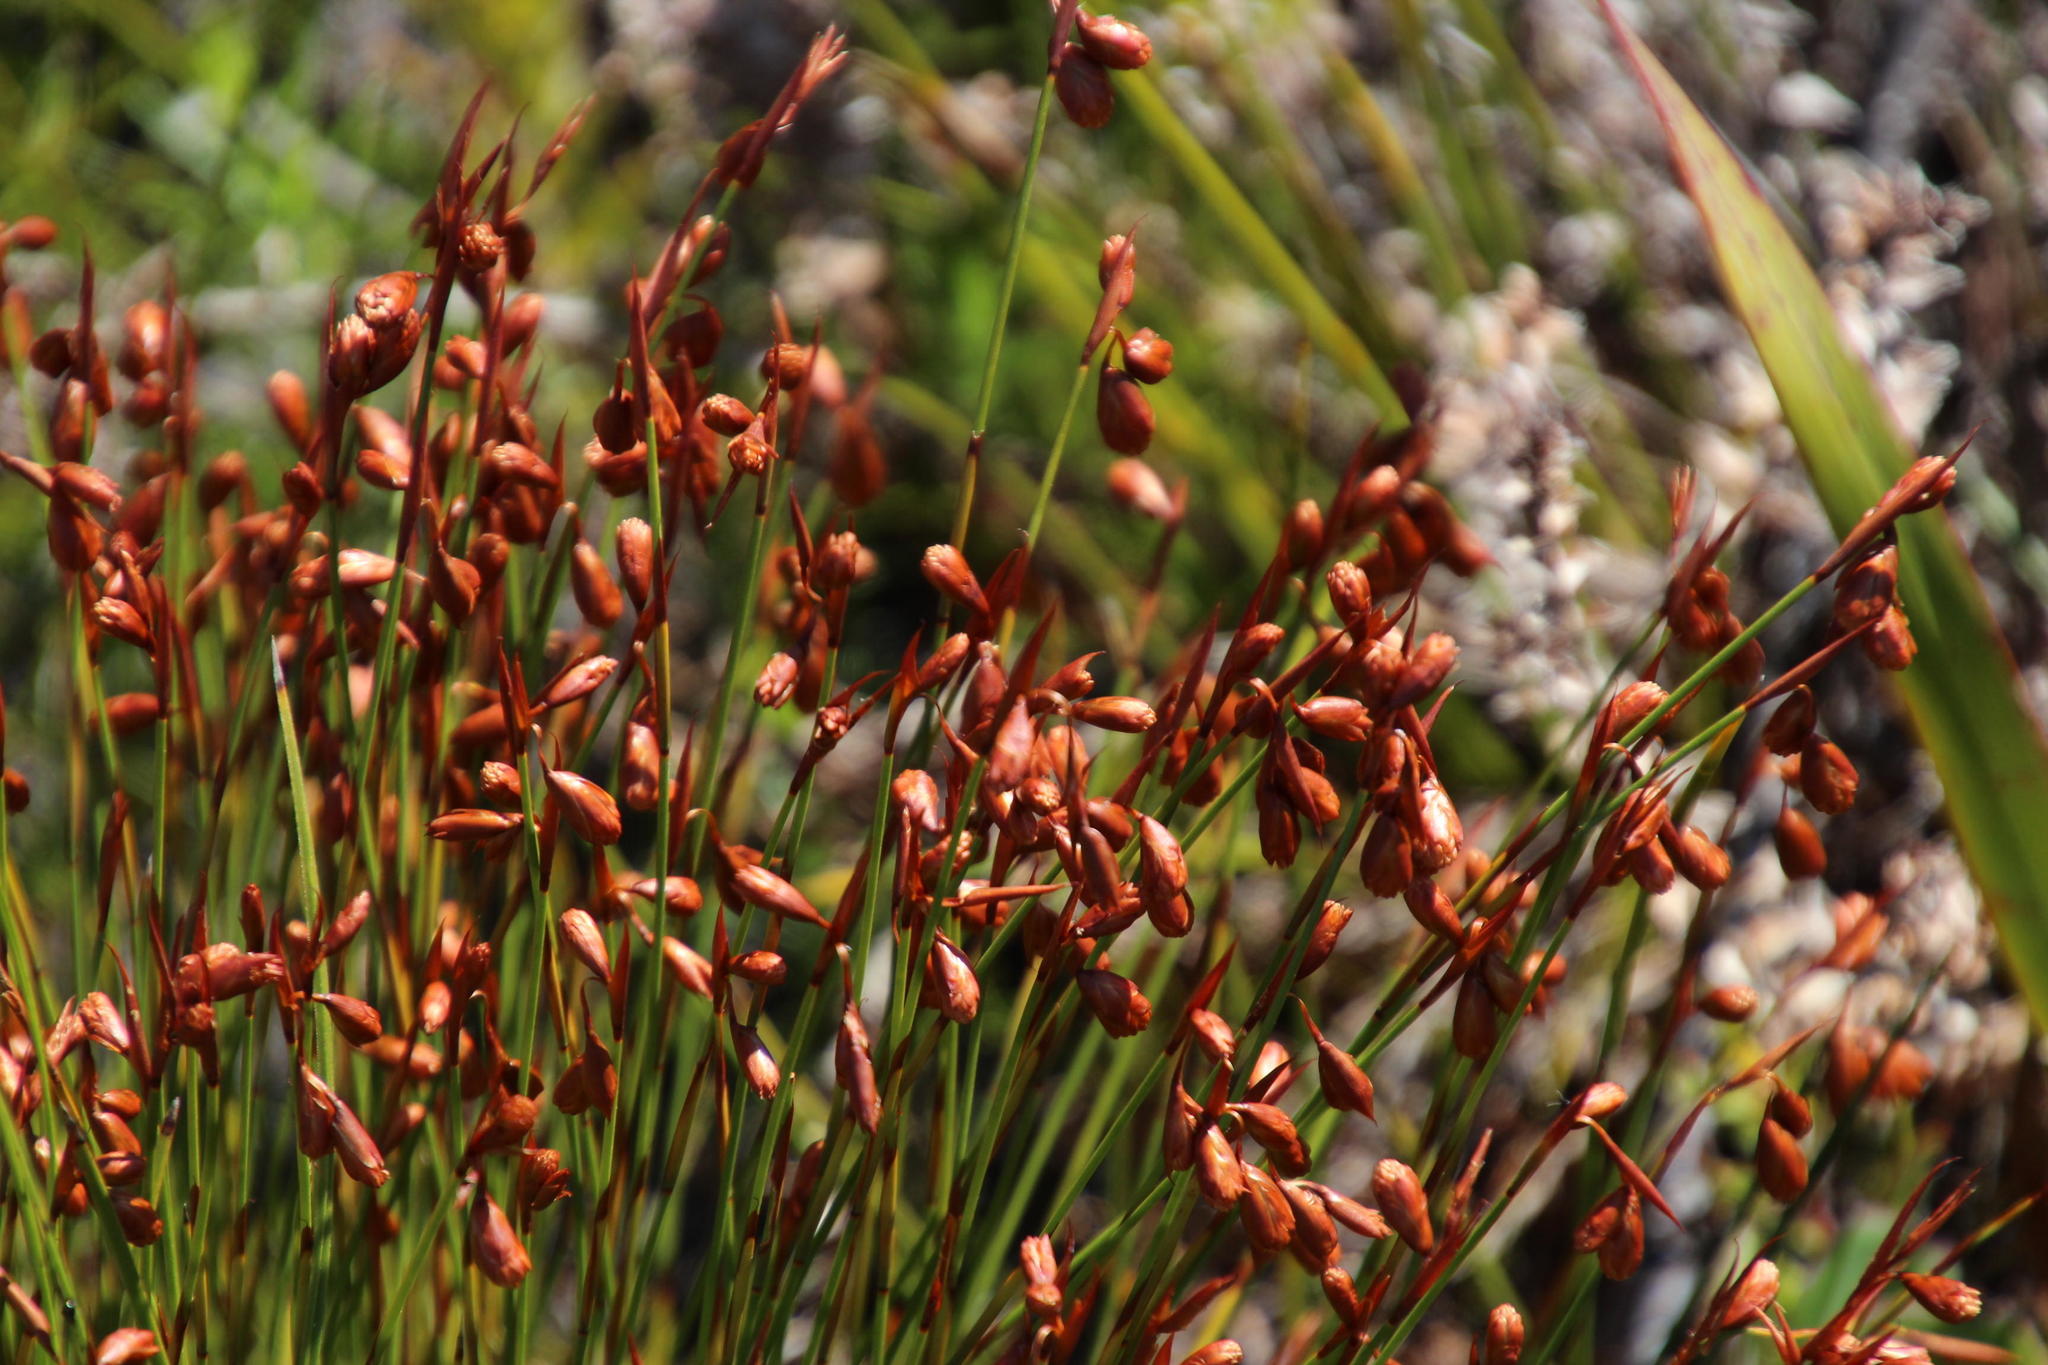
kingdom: Plantae
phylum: Tracheophyta
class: Liliopsida
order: Poales
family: Restionaceae
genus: Staberoha
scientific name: Staberoha banksii
